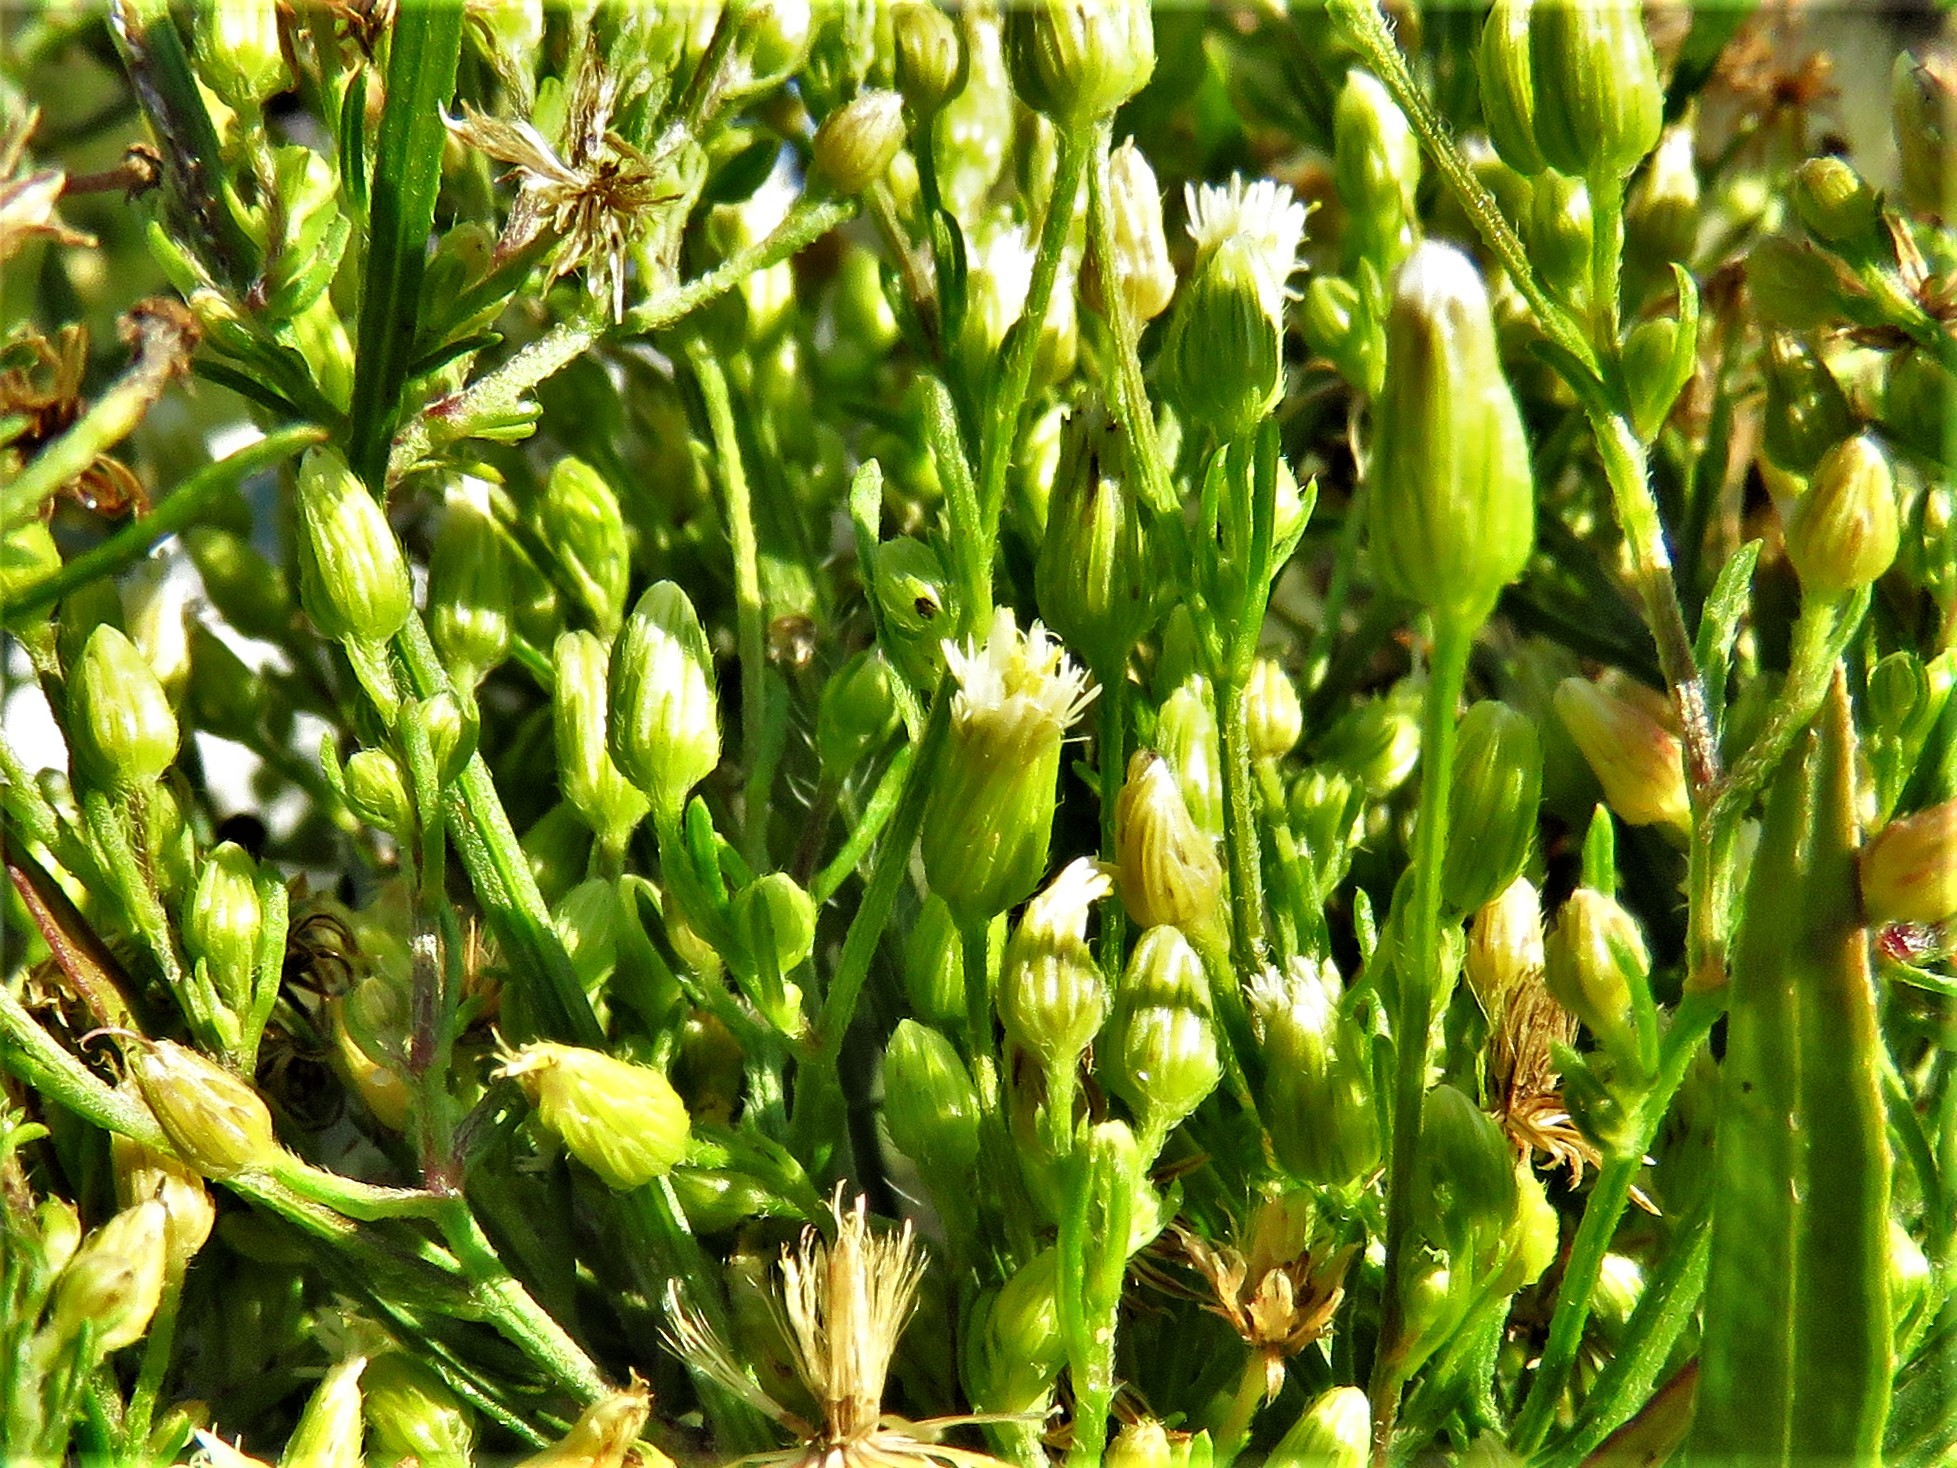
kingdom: Plantae
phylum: Tracheophyta
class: Magnoliopsida
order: Asterales
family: Asteraceae
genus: Erigeron
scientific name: Erigeron canadensis
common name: Canadian fleabane
